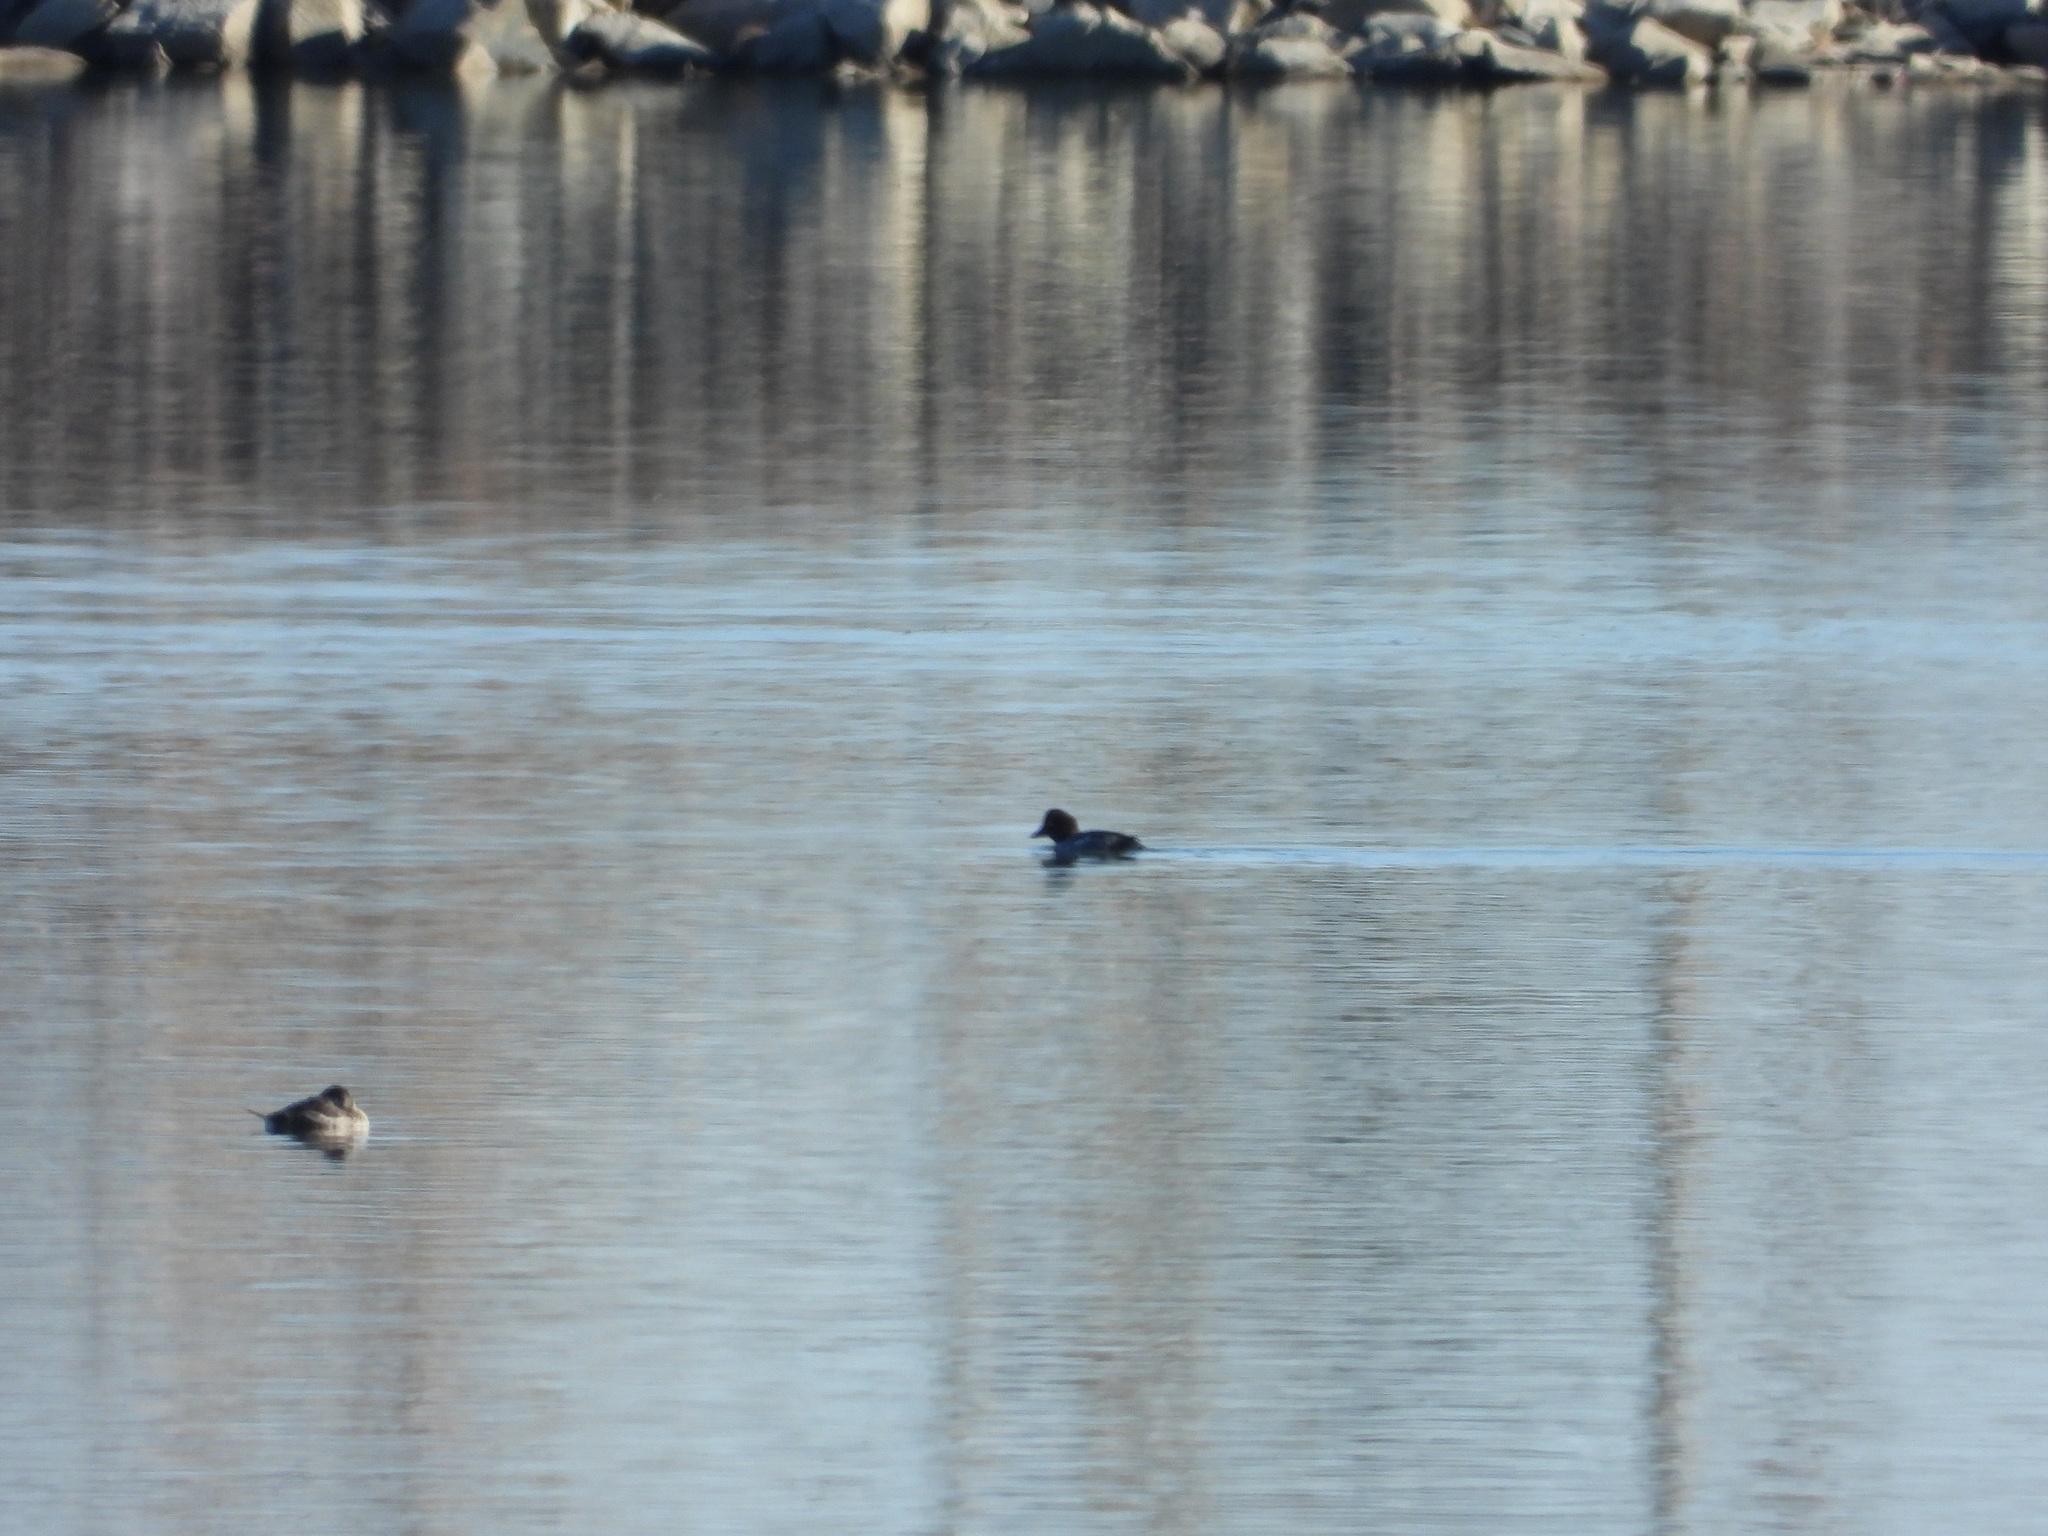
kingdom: Animalia
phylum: Chordata
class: Aves
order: Anseriformes
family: Anatidae
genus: Bucephala
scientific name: Bucephala clangula
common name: Common goldeneye
